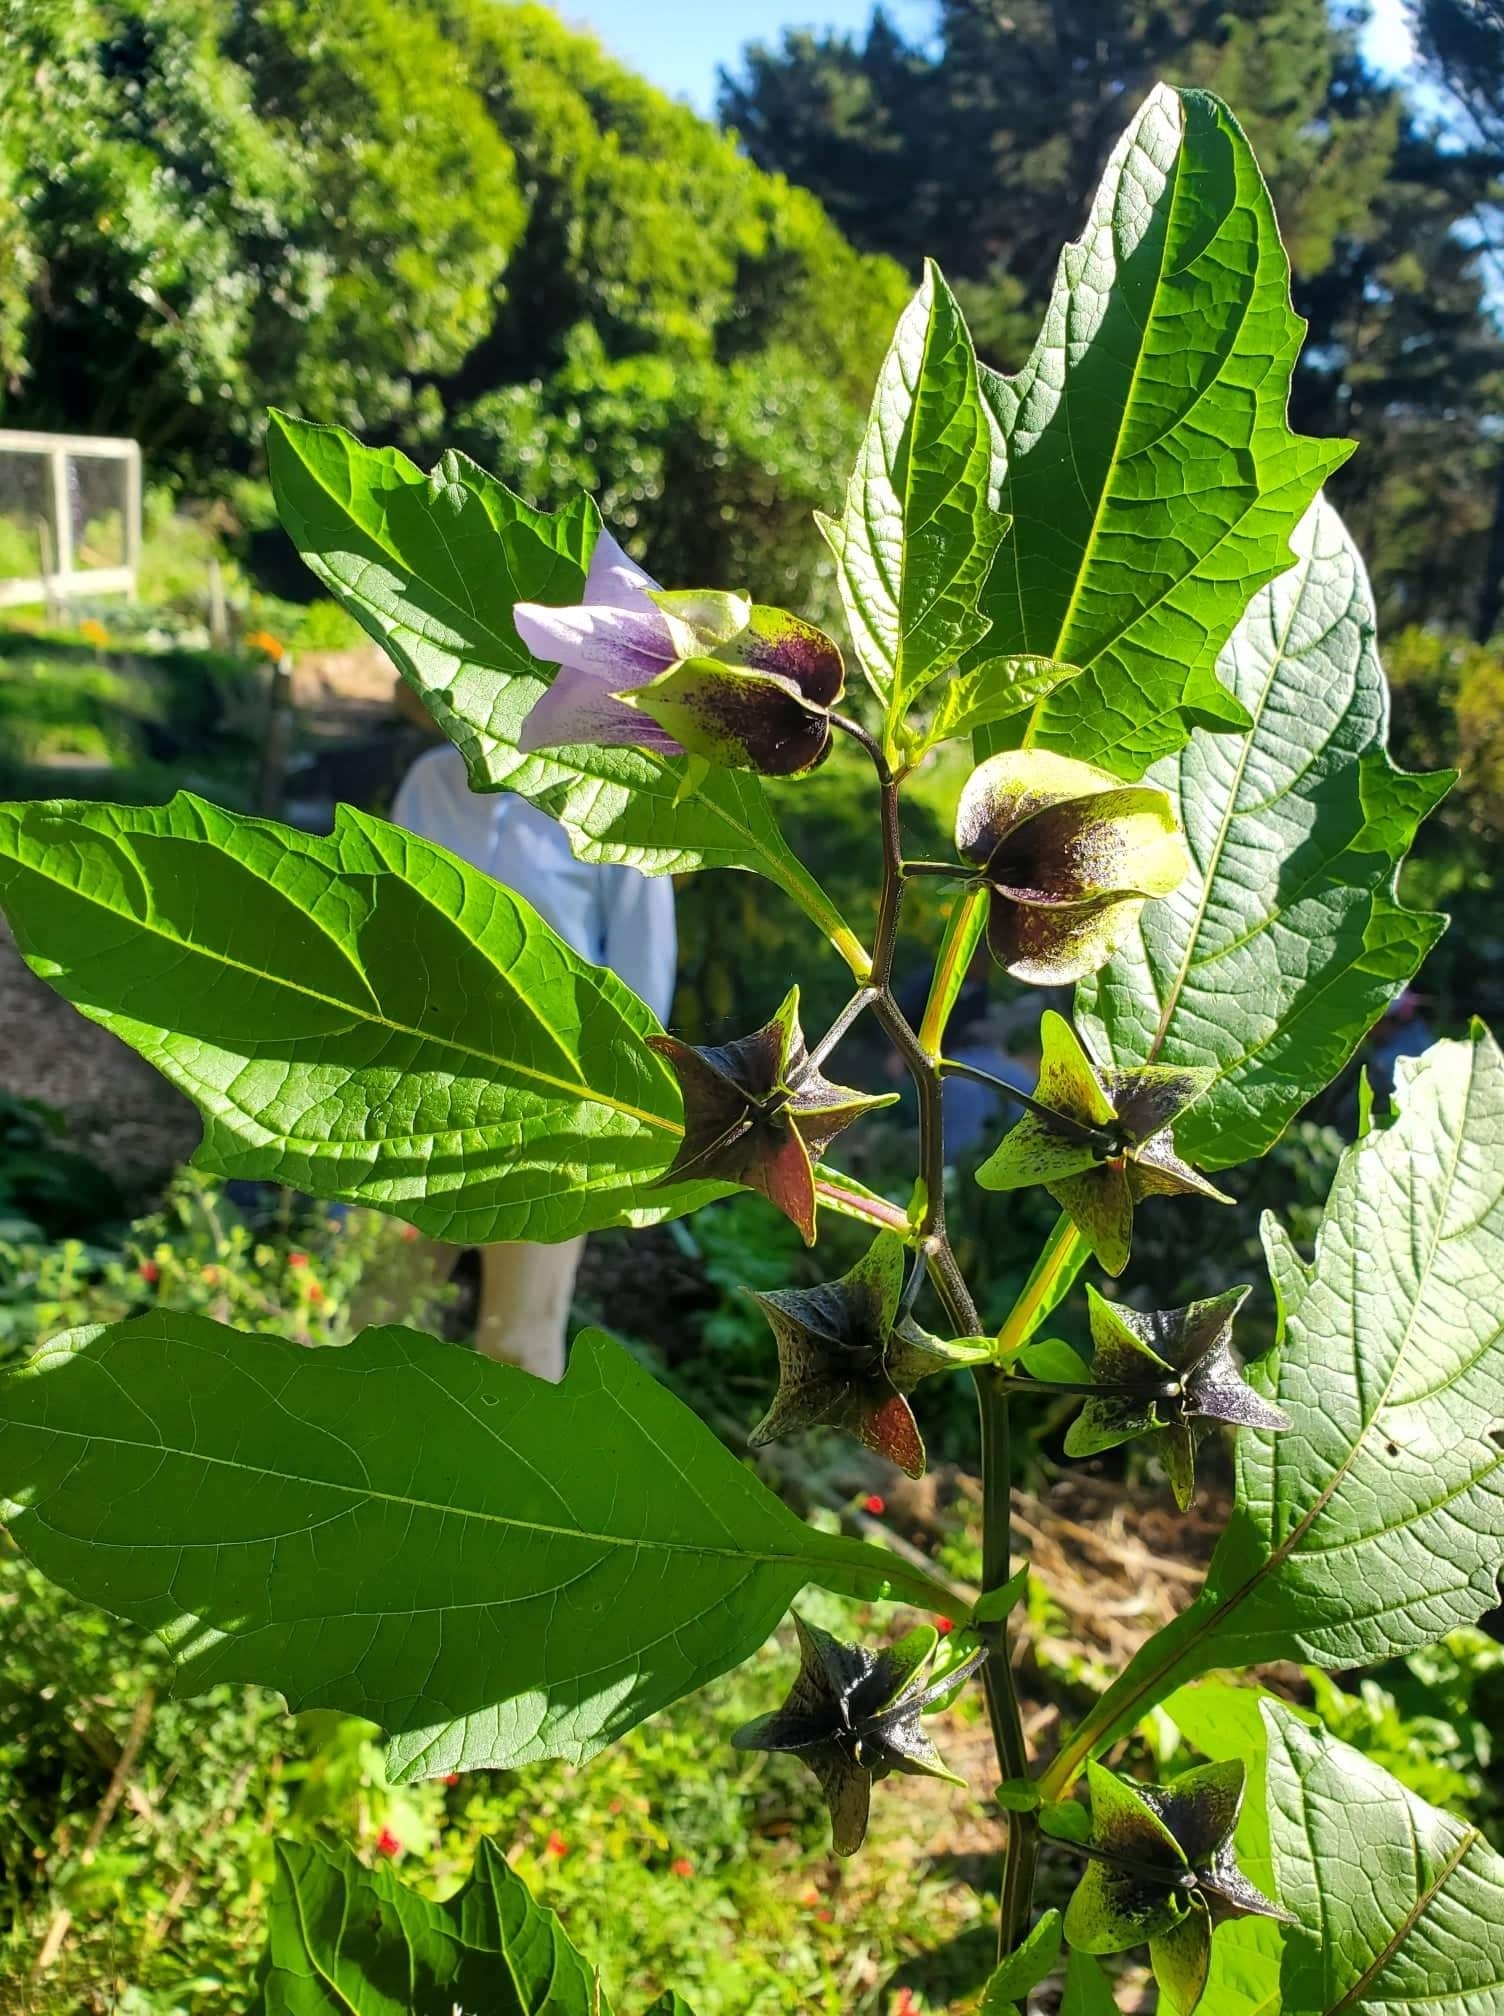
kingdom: Plantae
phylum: Tracheophyta
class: Magnoliopsida
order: Solanales
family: Solanaceae
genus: Nicandra
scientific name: Nicandra physalodes
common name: Apple-of-peru
